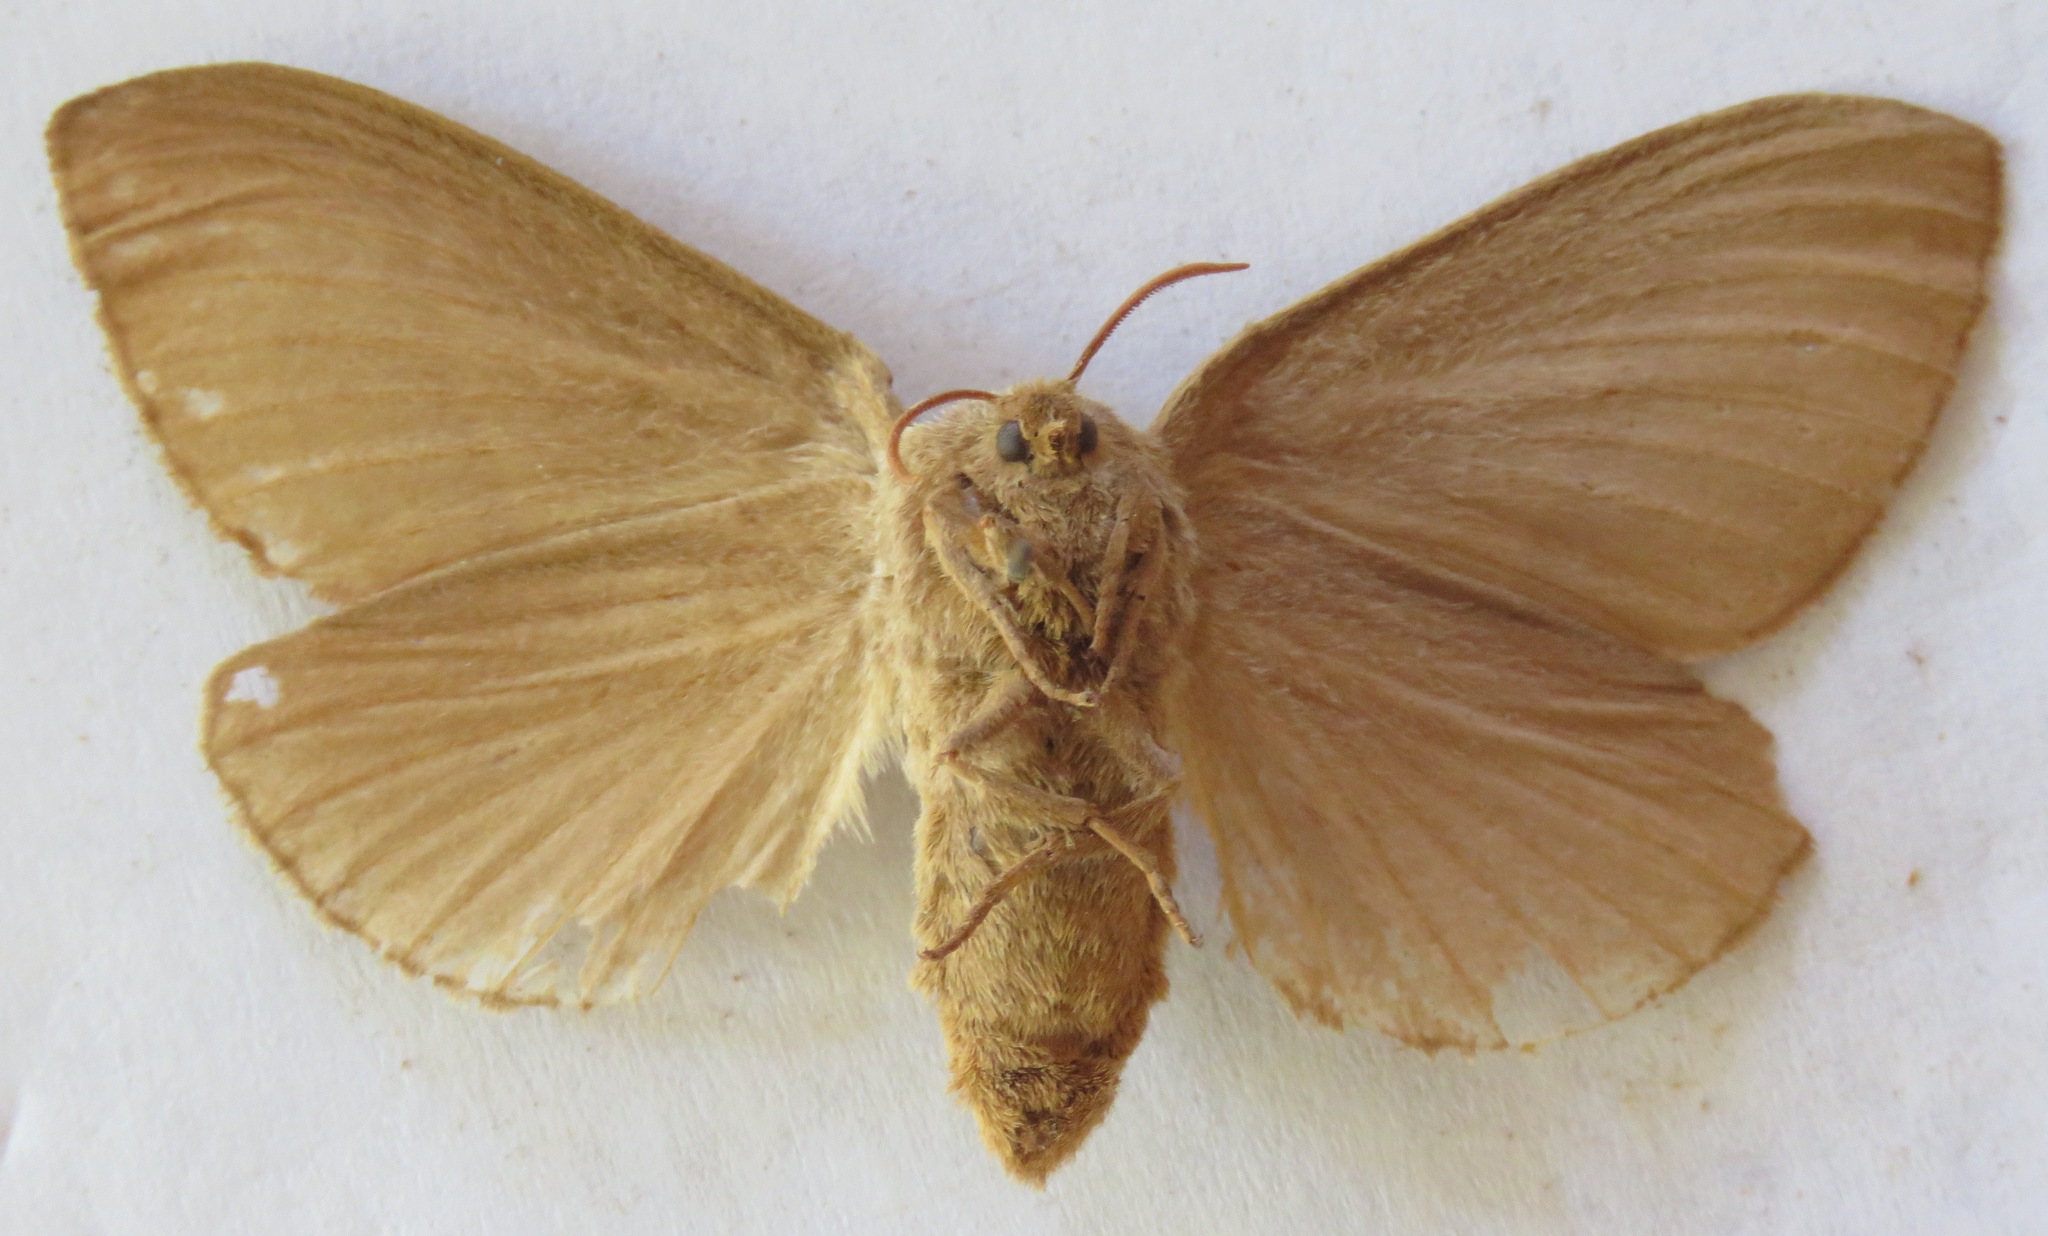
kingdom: Animalia
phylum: Arthropoda
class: Insecta
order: Lepidoptera
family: Lasiocampidae
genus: Macrothylacia
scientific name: Macrothylacia rubi
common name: Fox moth
